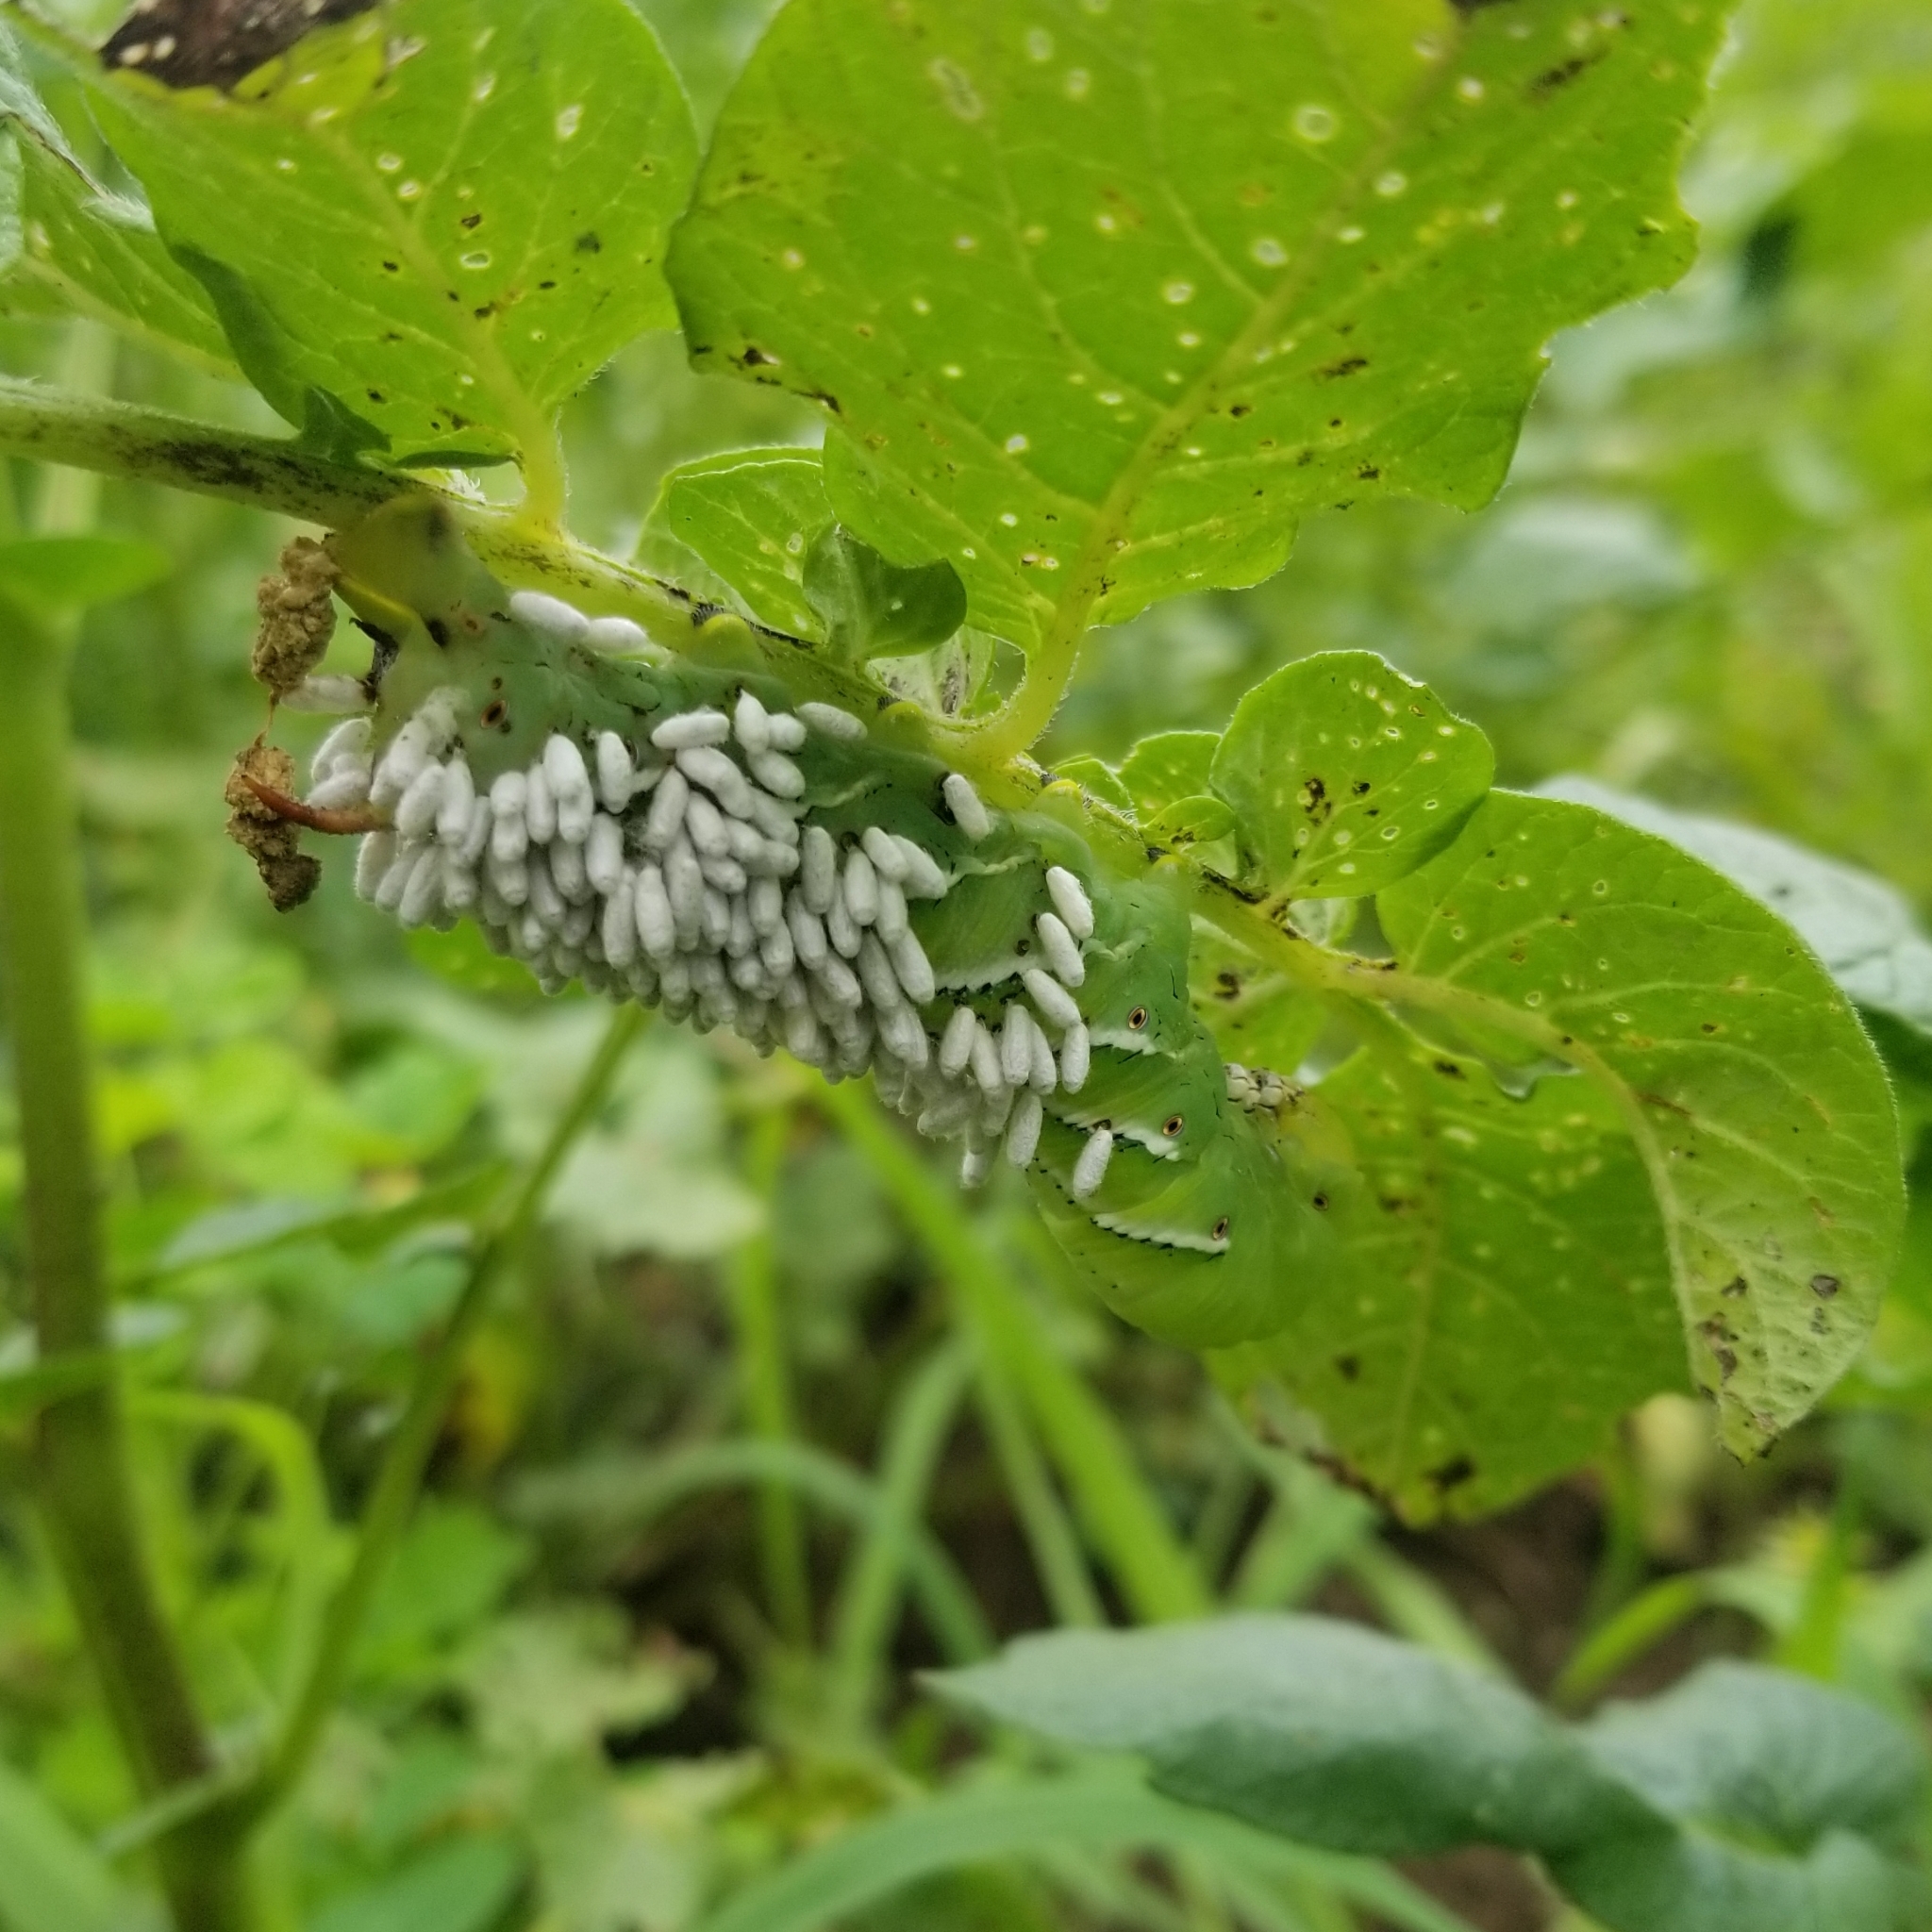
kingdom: Animalia
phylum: Arthropoda
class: Insecta
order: Hymenoptera
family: Braconidae
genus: Cotesia
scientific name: Cotesia congregata
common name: Hornworm parasitoid wasp
